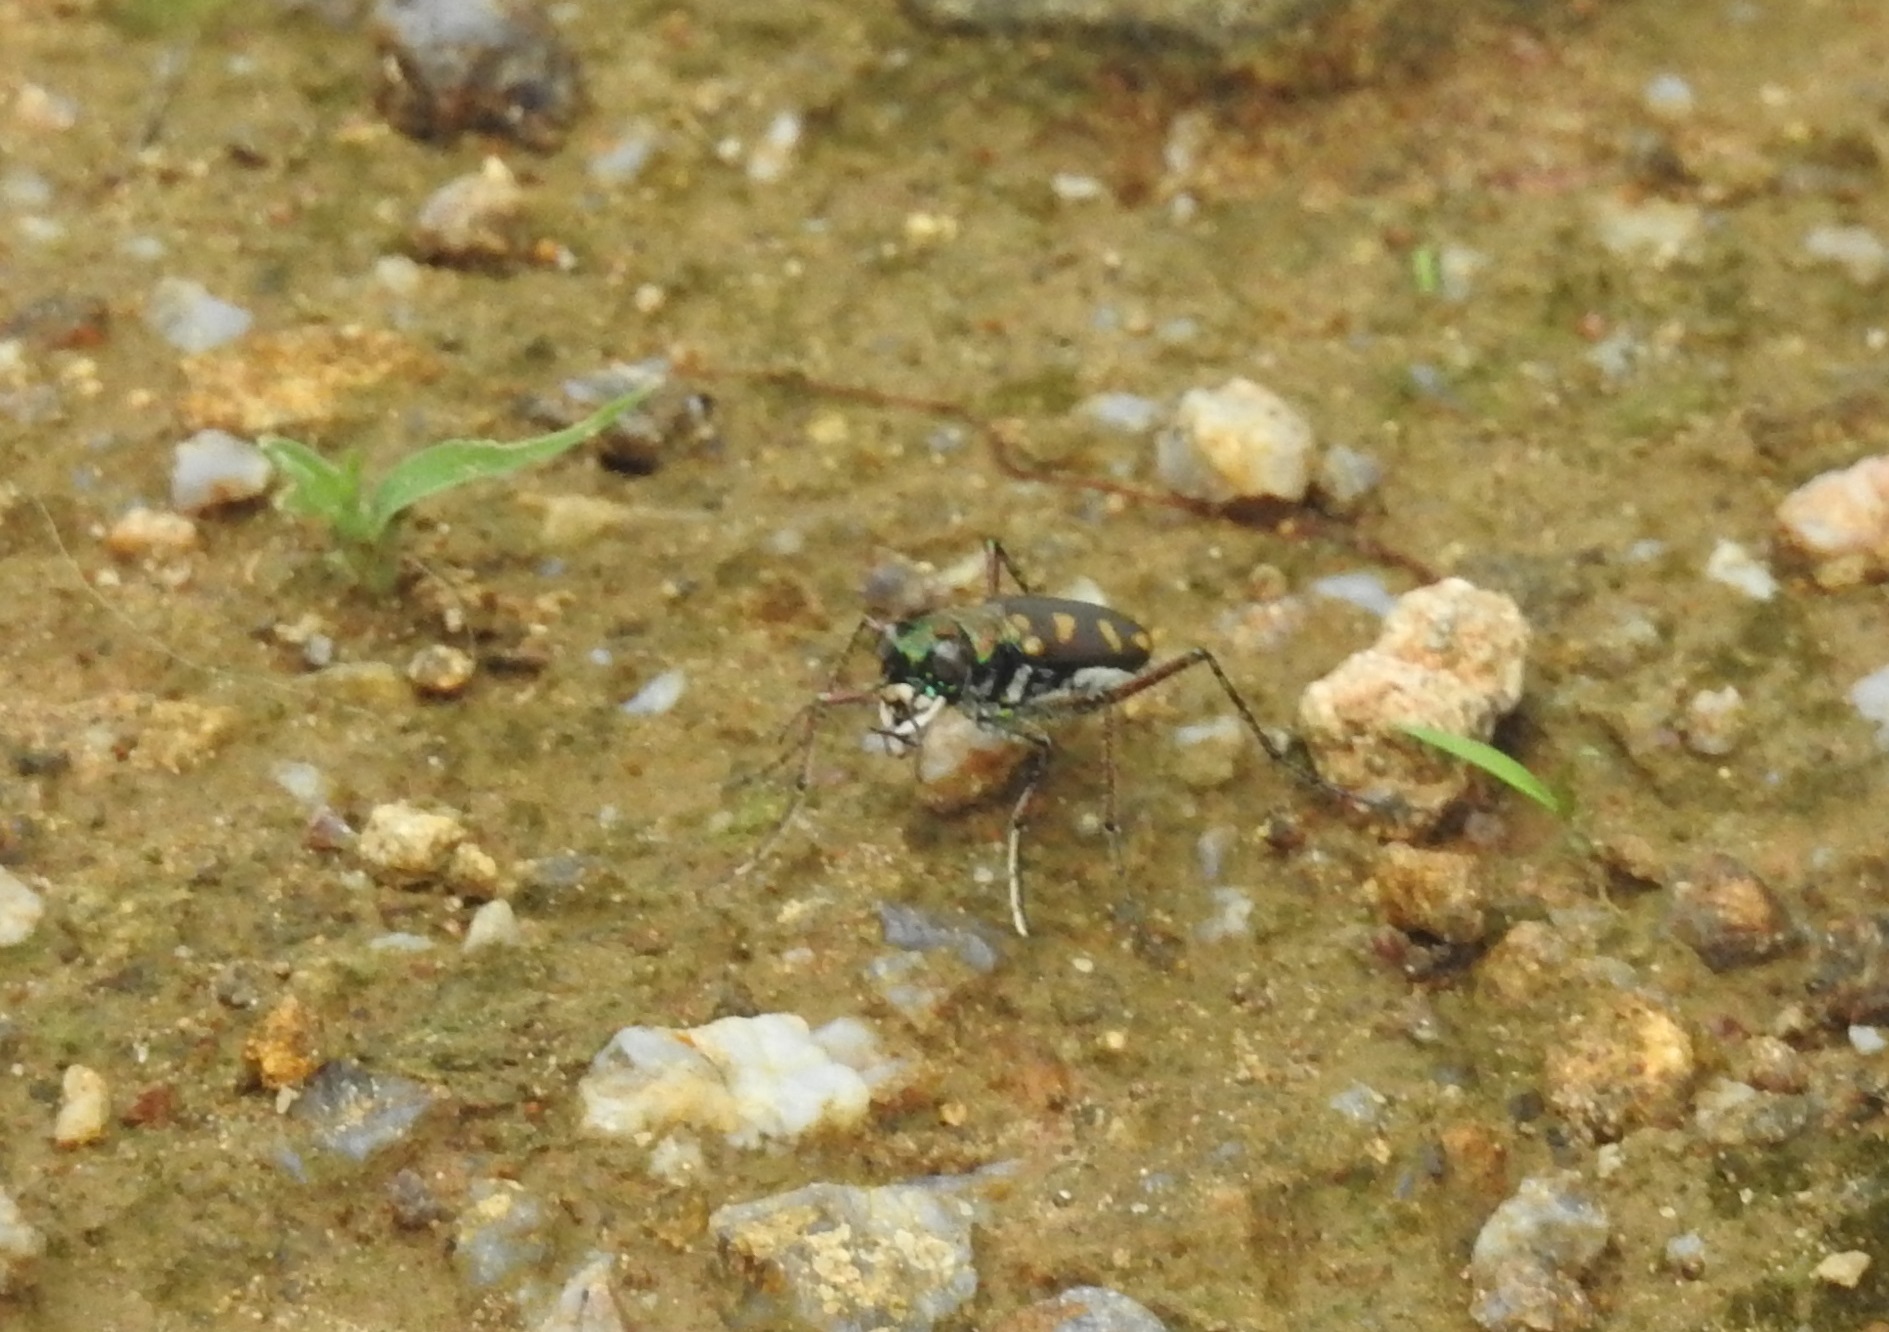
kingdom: Animalia
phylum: Arthropoda
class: Insecta
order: Coleoptera
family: Carabidae
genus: Cicindela
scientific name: Cicindela calligramma
